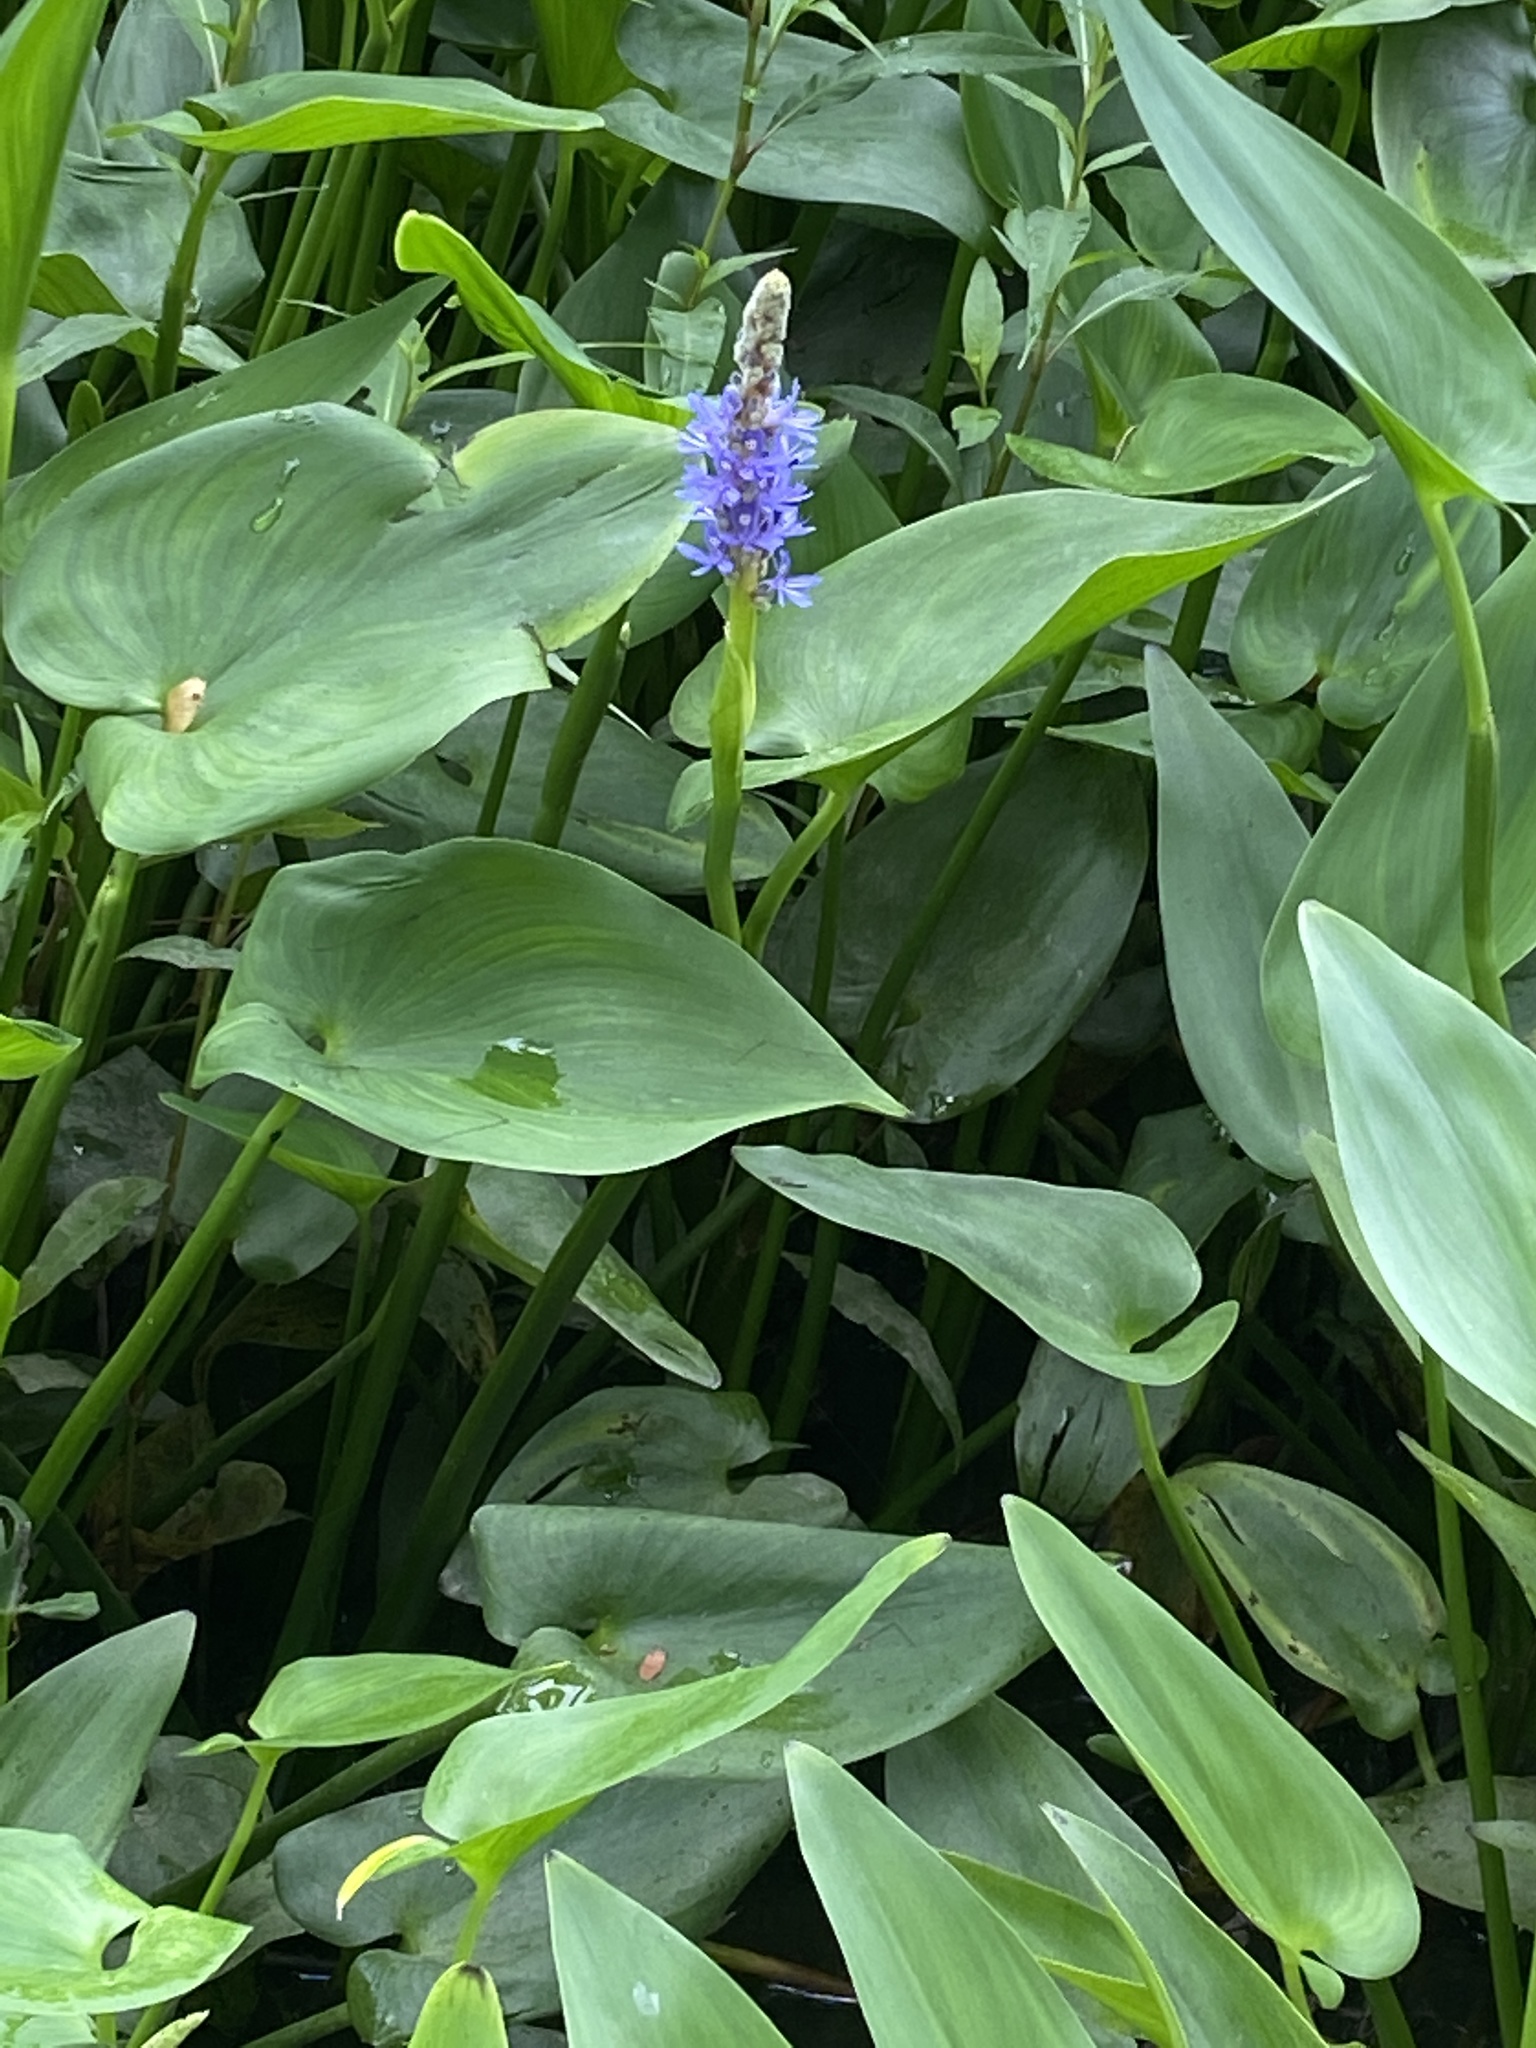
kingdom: Plantae
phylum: Tracheophyta
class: Liliopsida
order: Commelinales
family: Pontederiaceae
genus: Pontederia
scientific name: Pontederia cordata
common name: Pickerelweed
